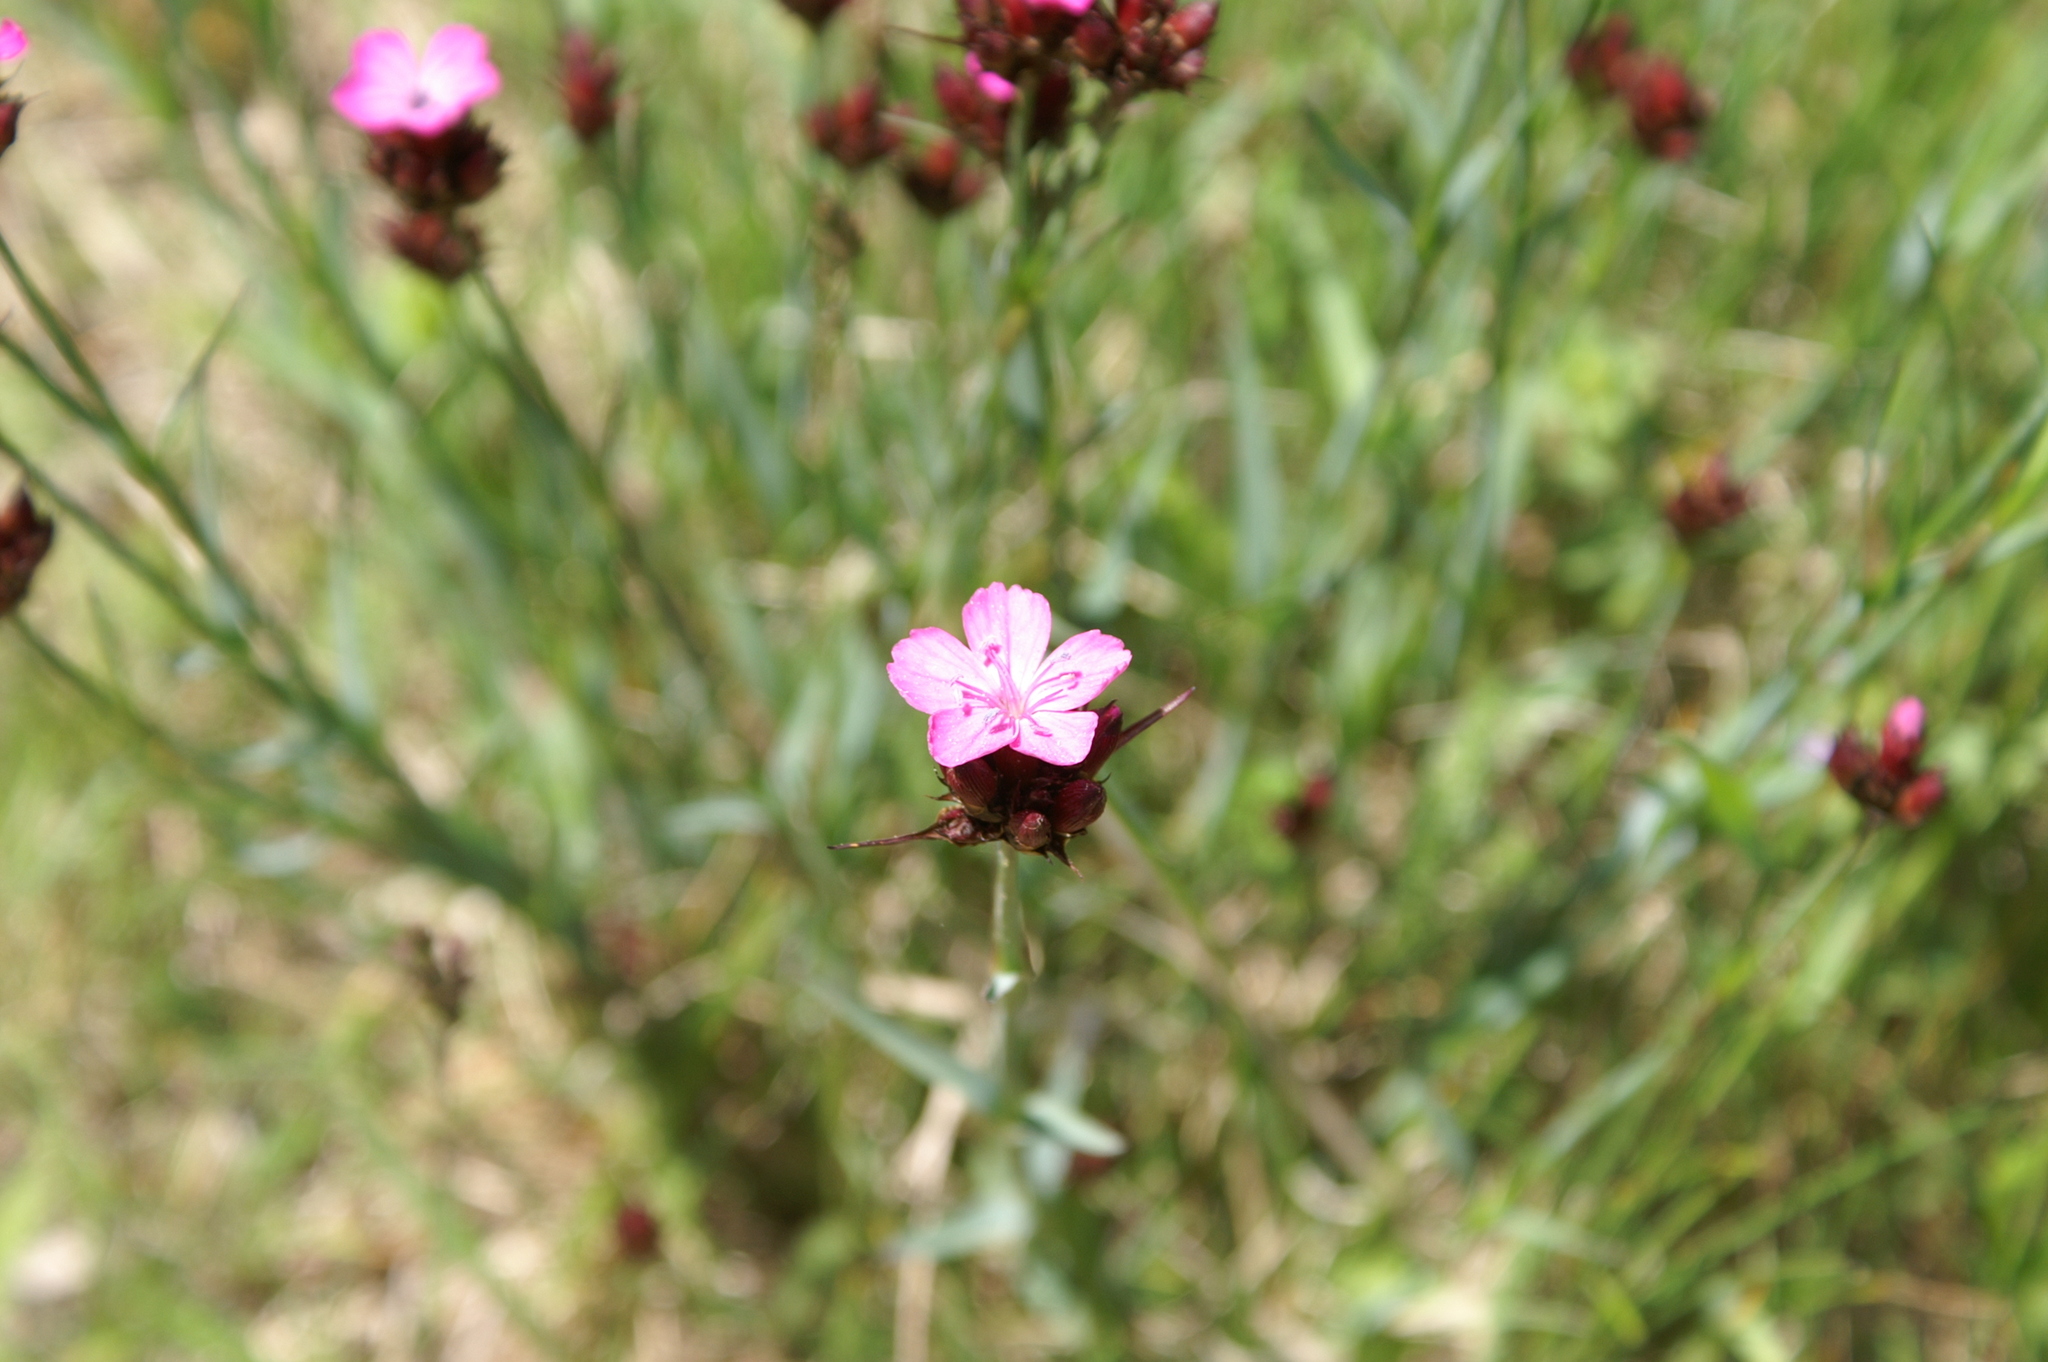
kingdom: Plantae
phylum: Tracheophyta
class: Magnoliopsida
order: Caryophyllales
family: Caryophyllaceae
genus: Dianthus
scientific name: Dianthus carthusianorum
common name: Carthusian pink
